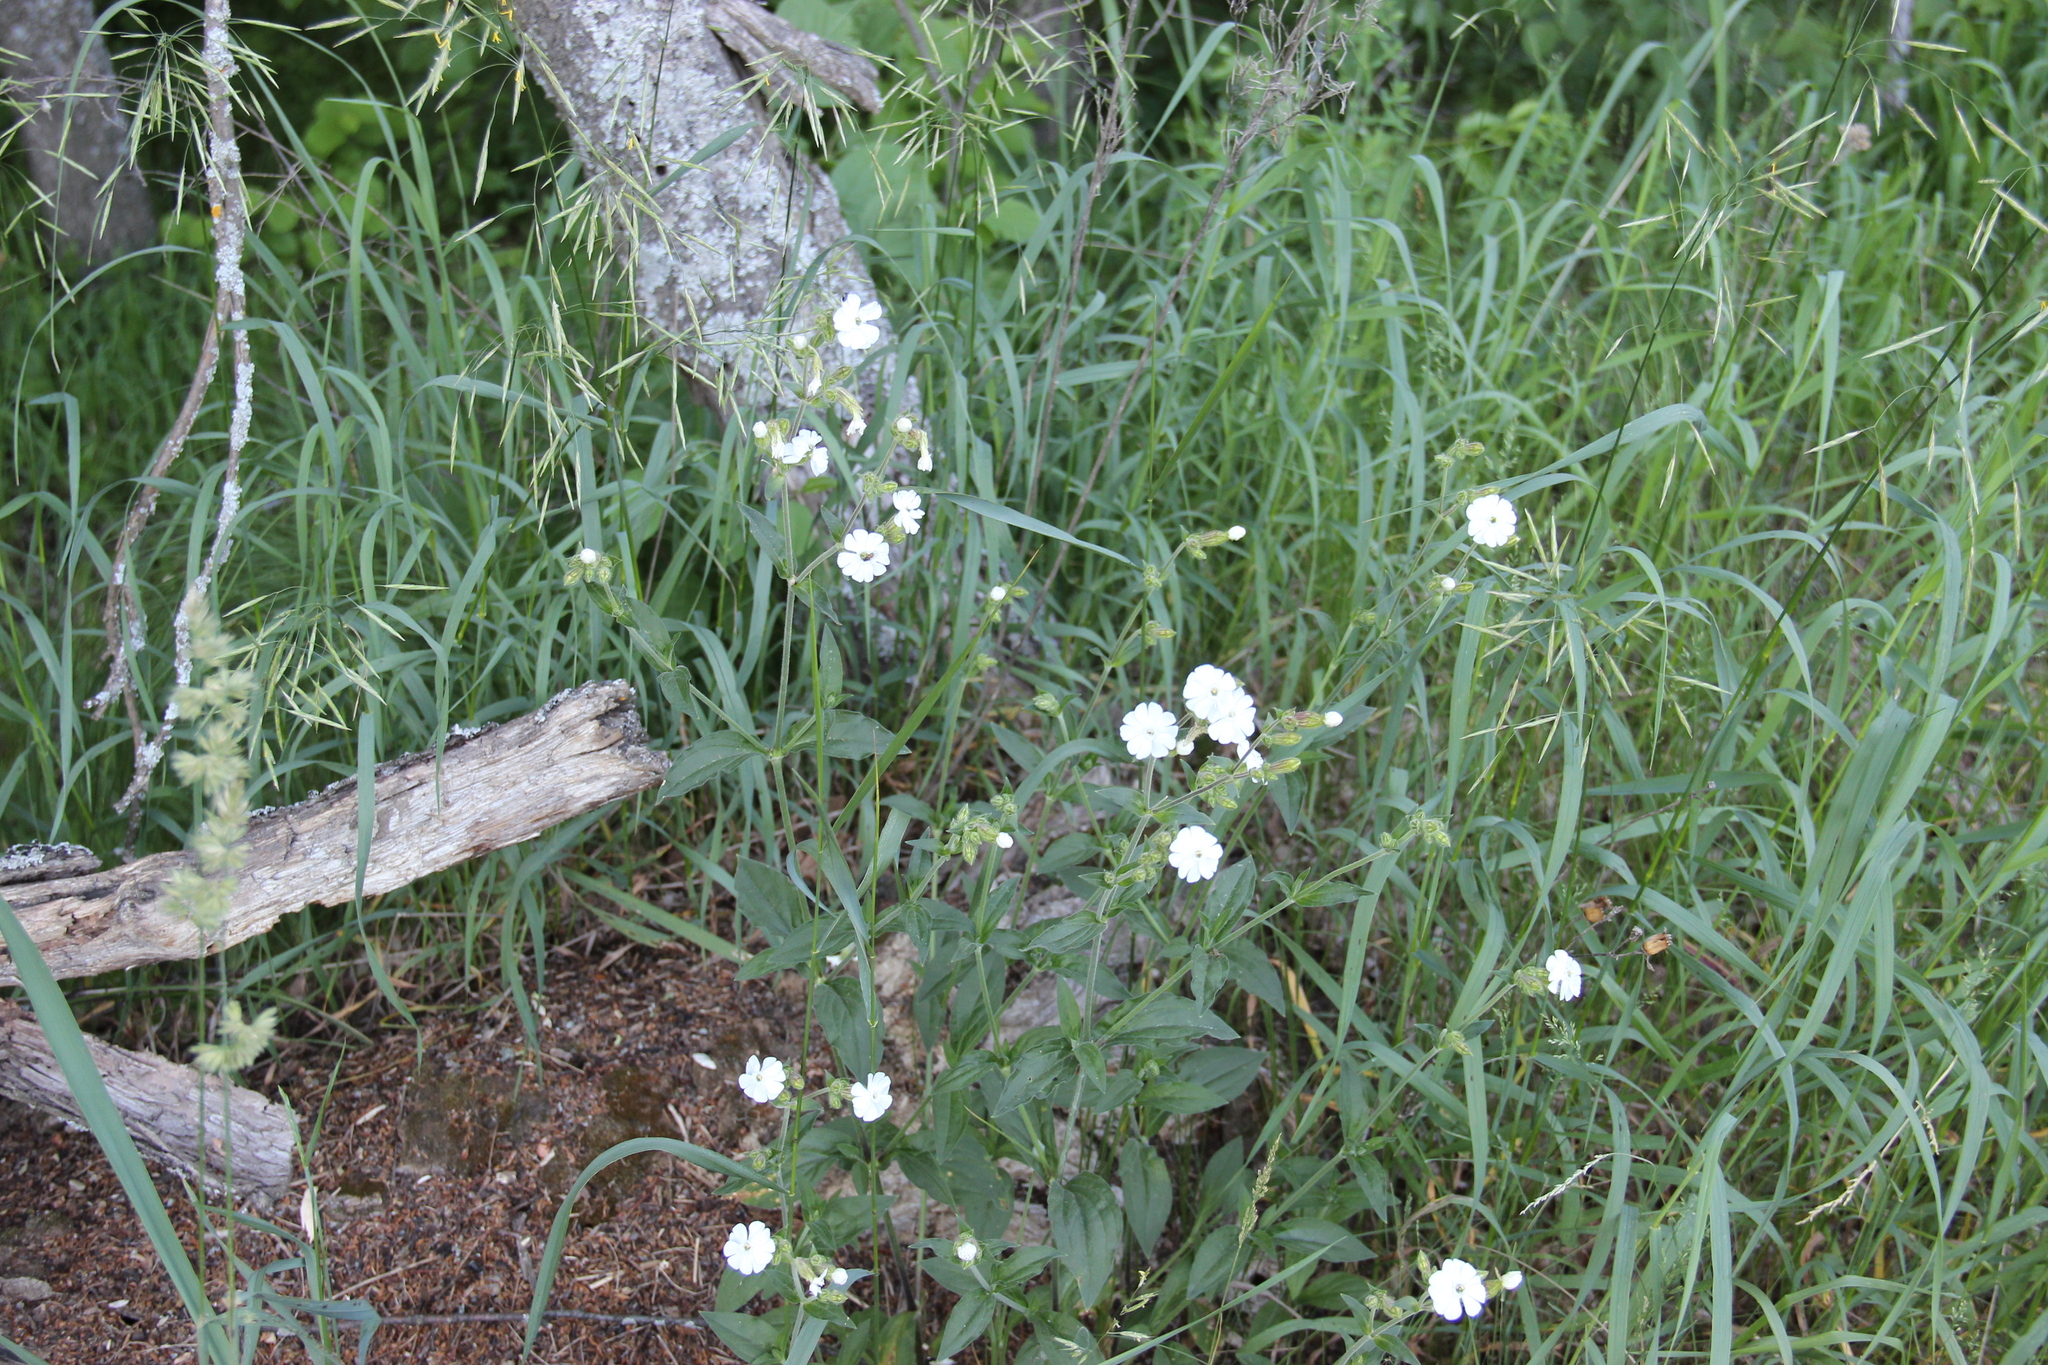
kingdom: Plantae
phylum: Tracheophyta
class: Magnoliopsida
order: Caryophyllales
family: Caryophyllaceae
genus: Silene
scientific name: Silene latifolia
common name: White campion
